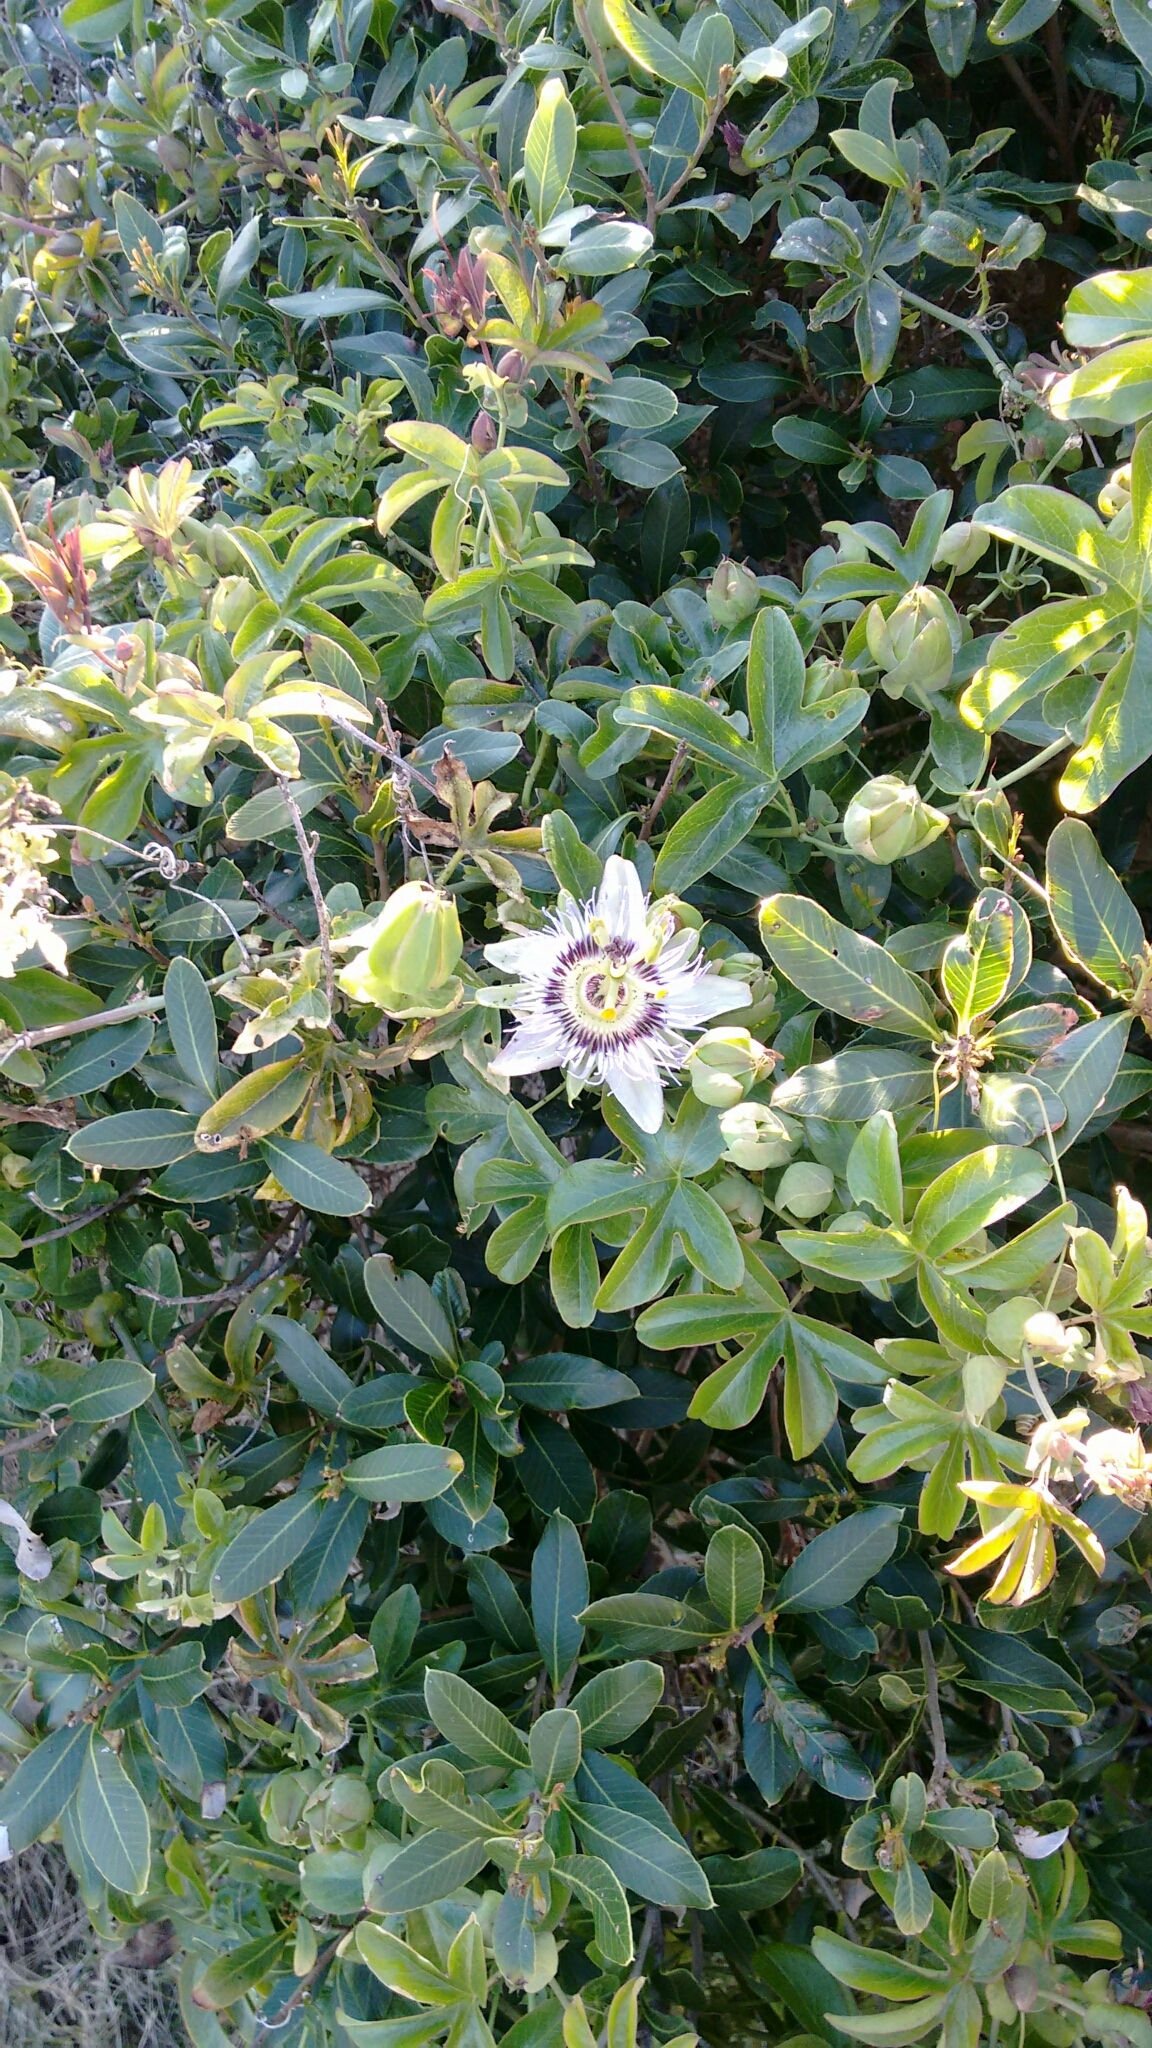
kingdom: Plantae
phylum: Tracheophyta
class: Magnoliopsida
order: Malpighiales
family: Passifloraceae
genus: Passiflora
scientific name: Passiflora caerulea
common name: Blue passionflower
